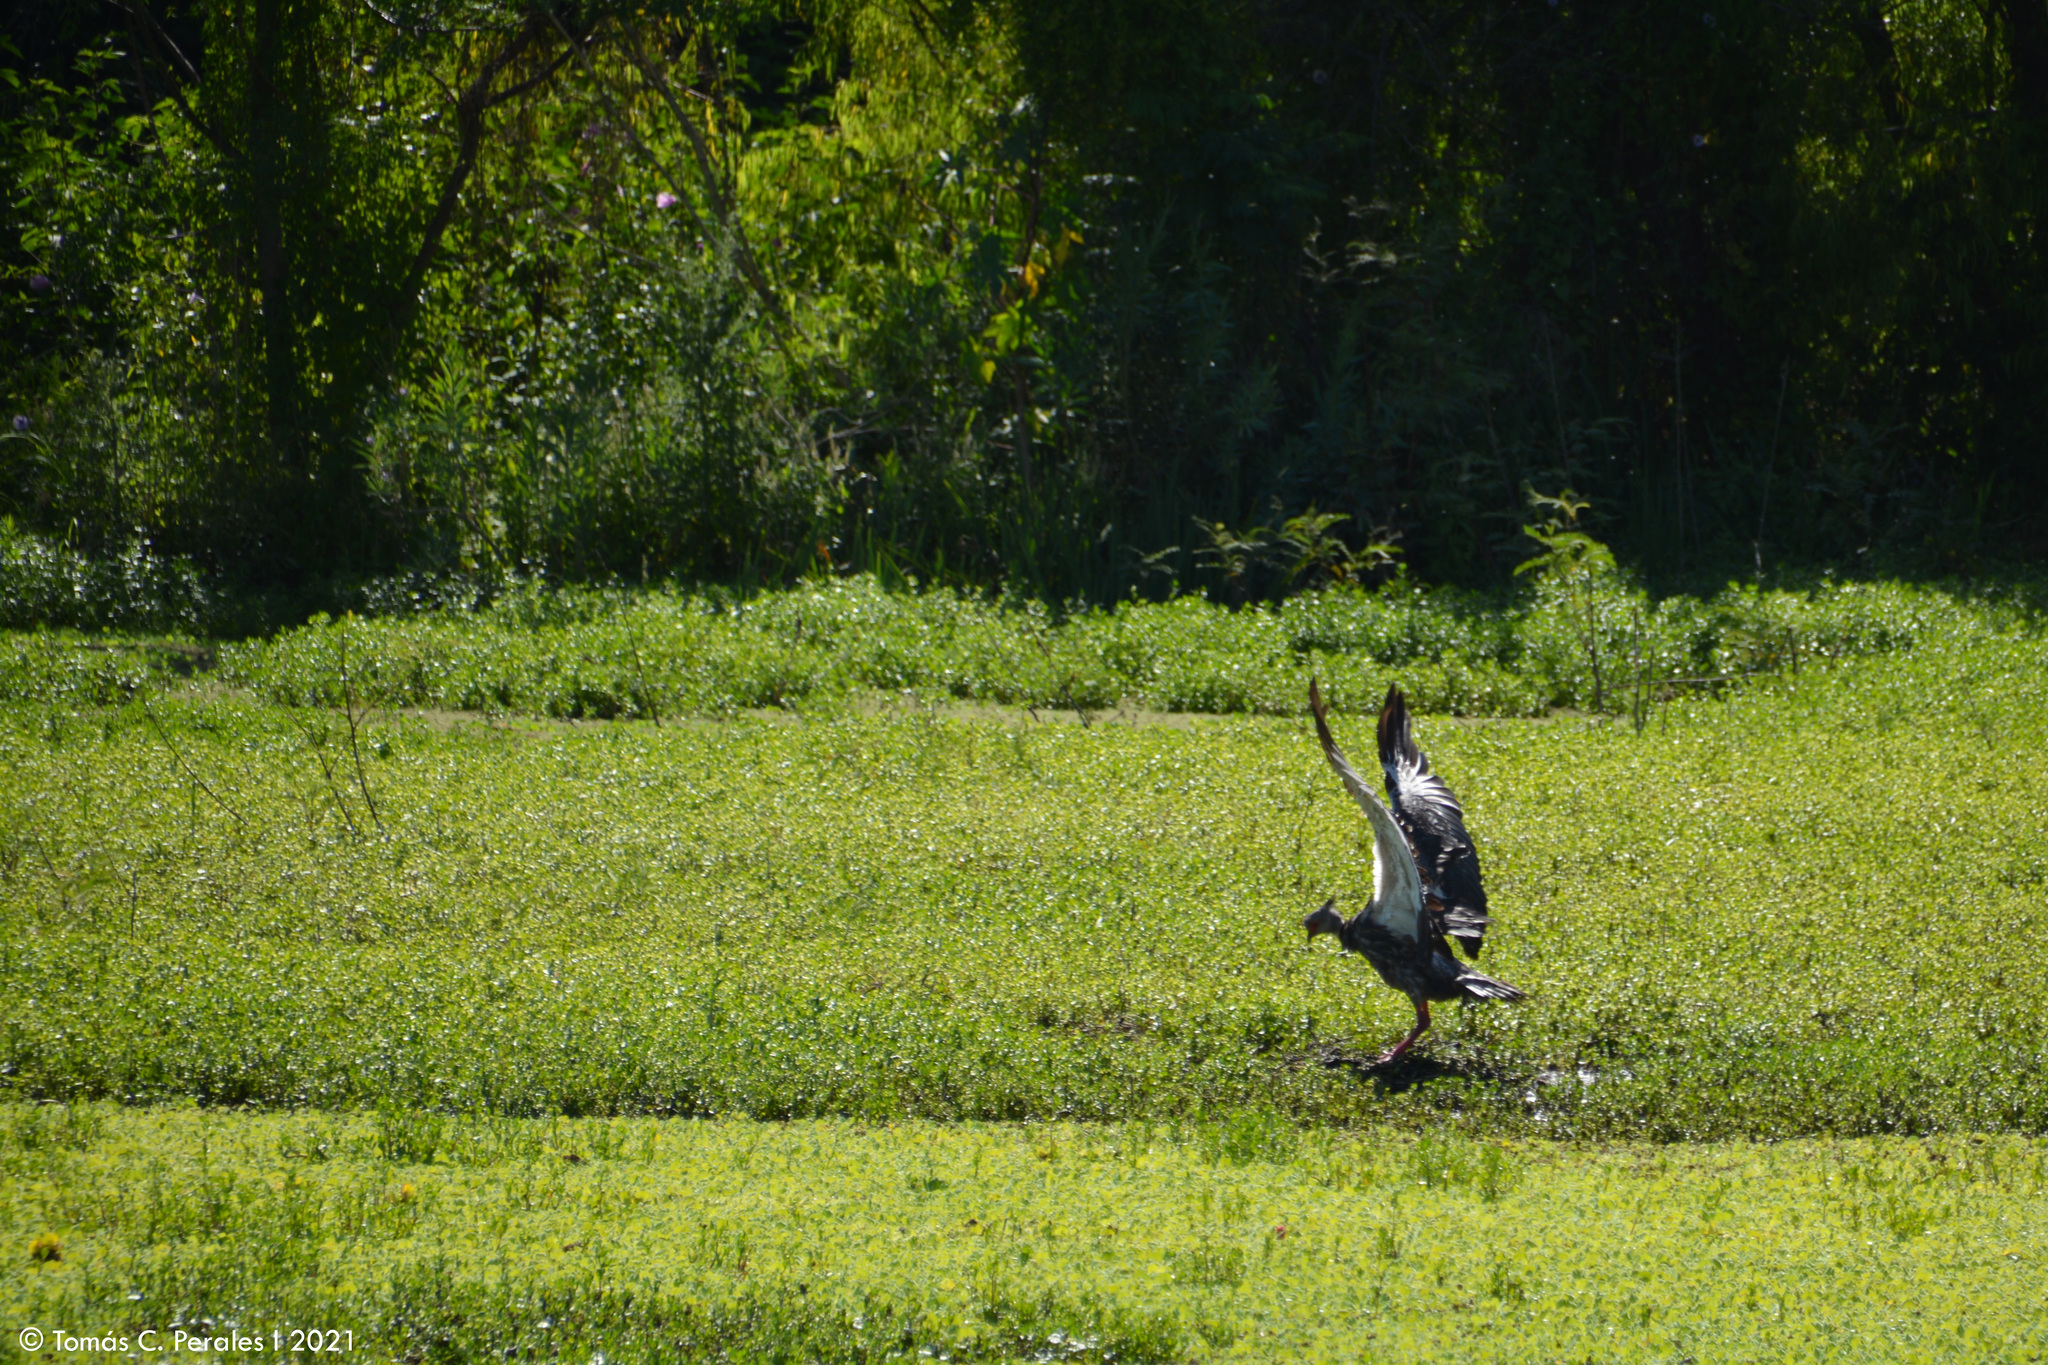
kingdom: Animalia
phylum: Chordata
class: Aves
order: Anseriformes
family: Anhimidae
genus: Chauna
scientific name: Chauna torquata
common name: Southern screamer
